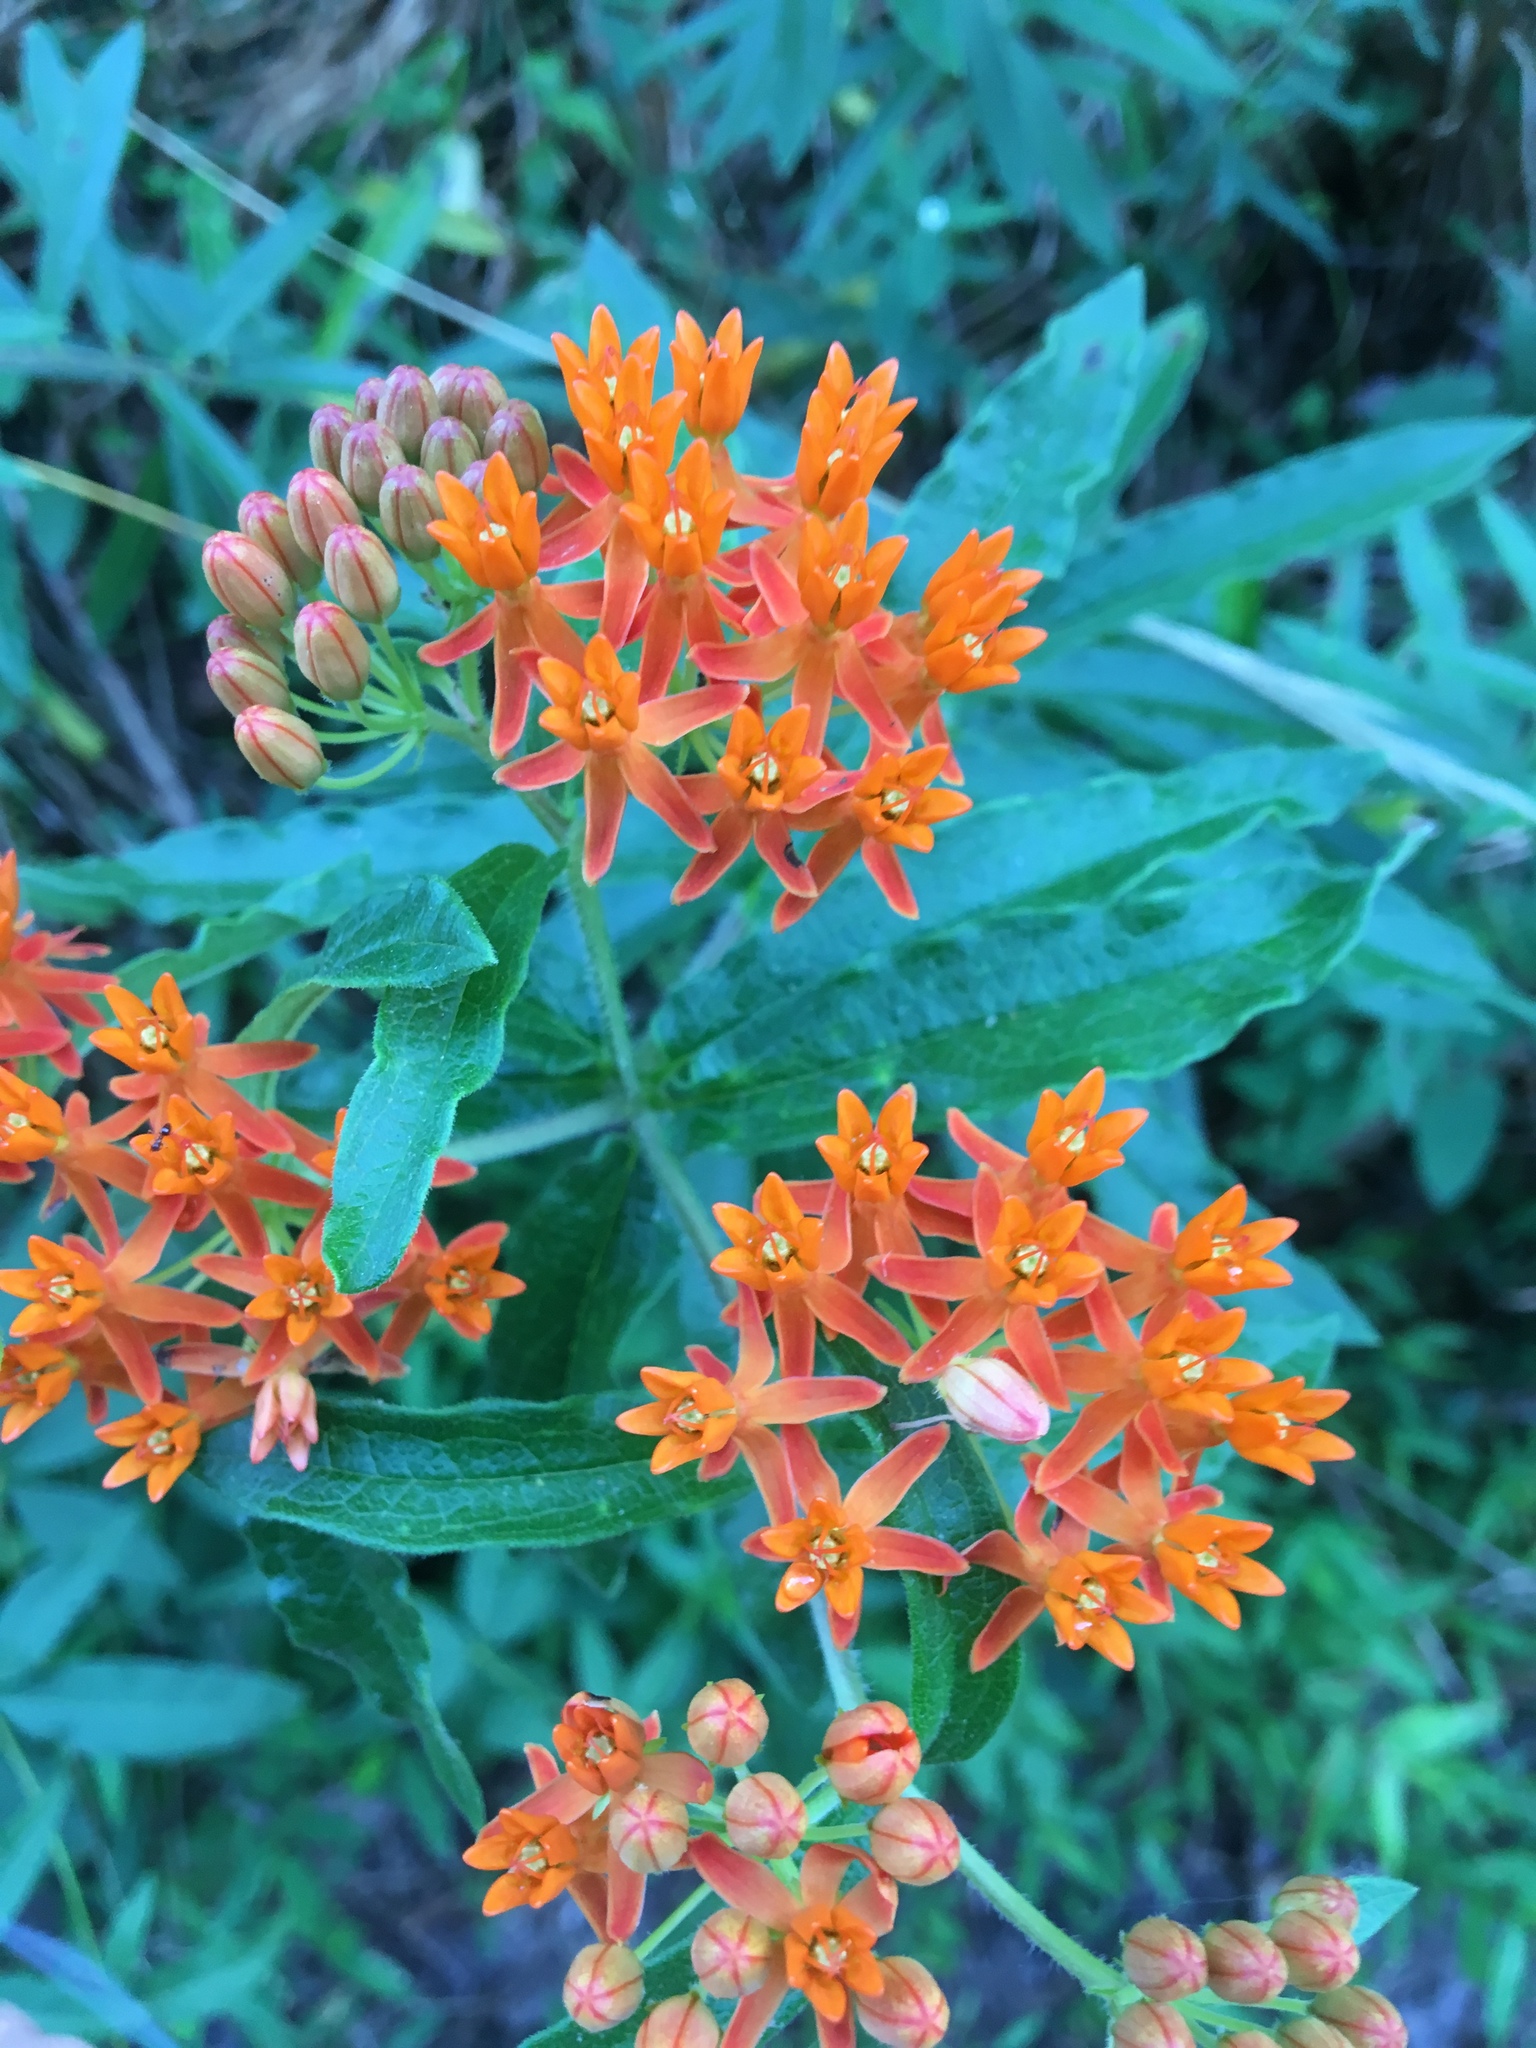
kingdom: Plantae
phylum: Tracheophyta
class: Magnoliopsida
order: Gentianales
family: Apocynaceae
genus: Asclepias
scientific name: Asclepias tuberosa
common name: Butterfly milkweed
